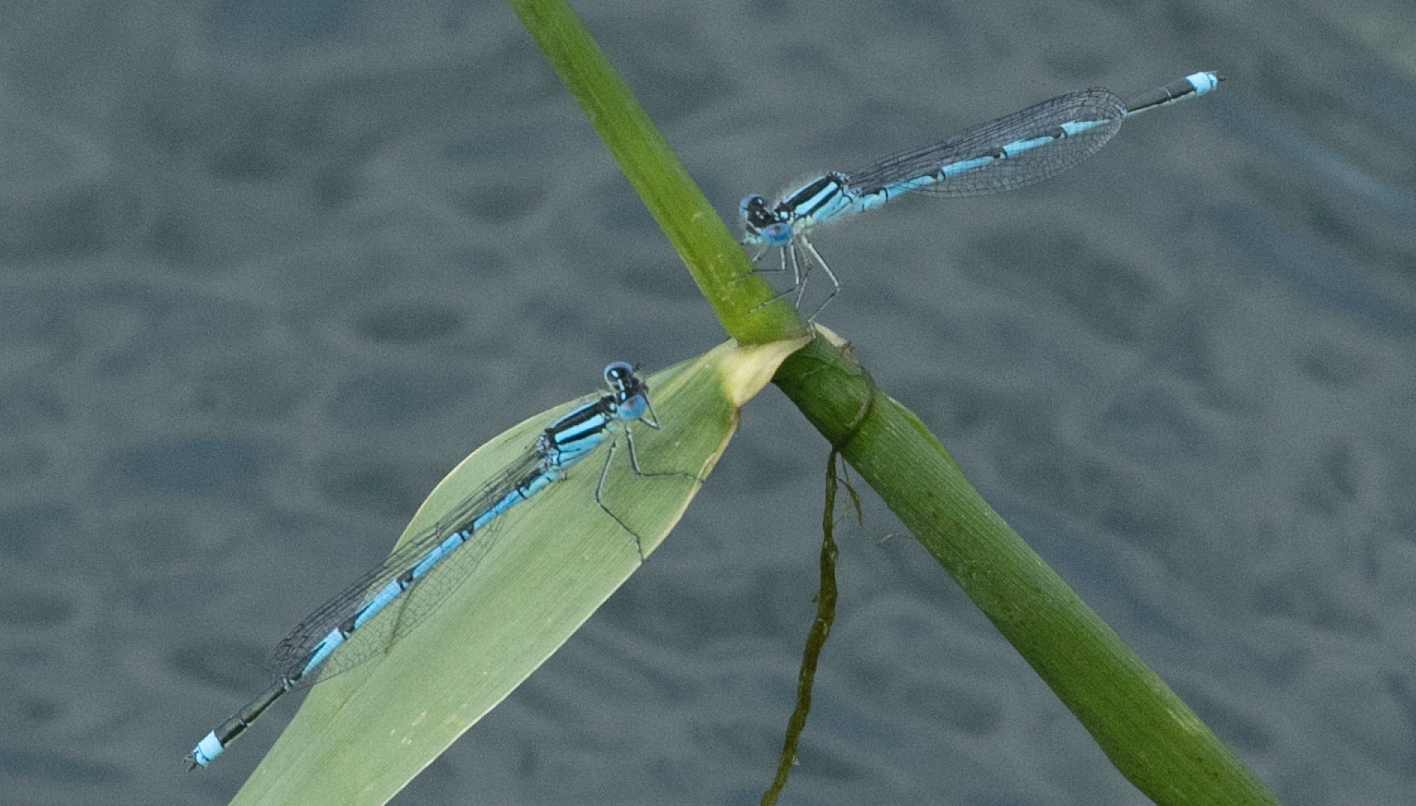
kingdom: Animalia
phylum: Arthropoda
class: Insecta
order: Odonata
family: Coenagrionidae
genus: Erythromma
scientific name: Erythromma lindenii
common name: Blue-eye
